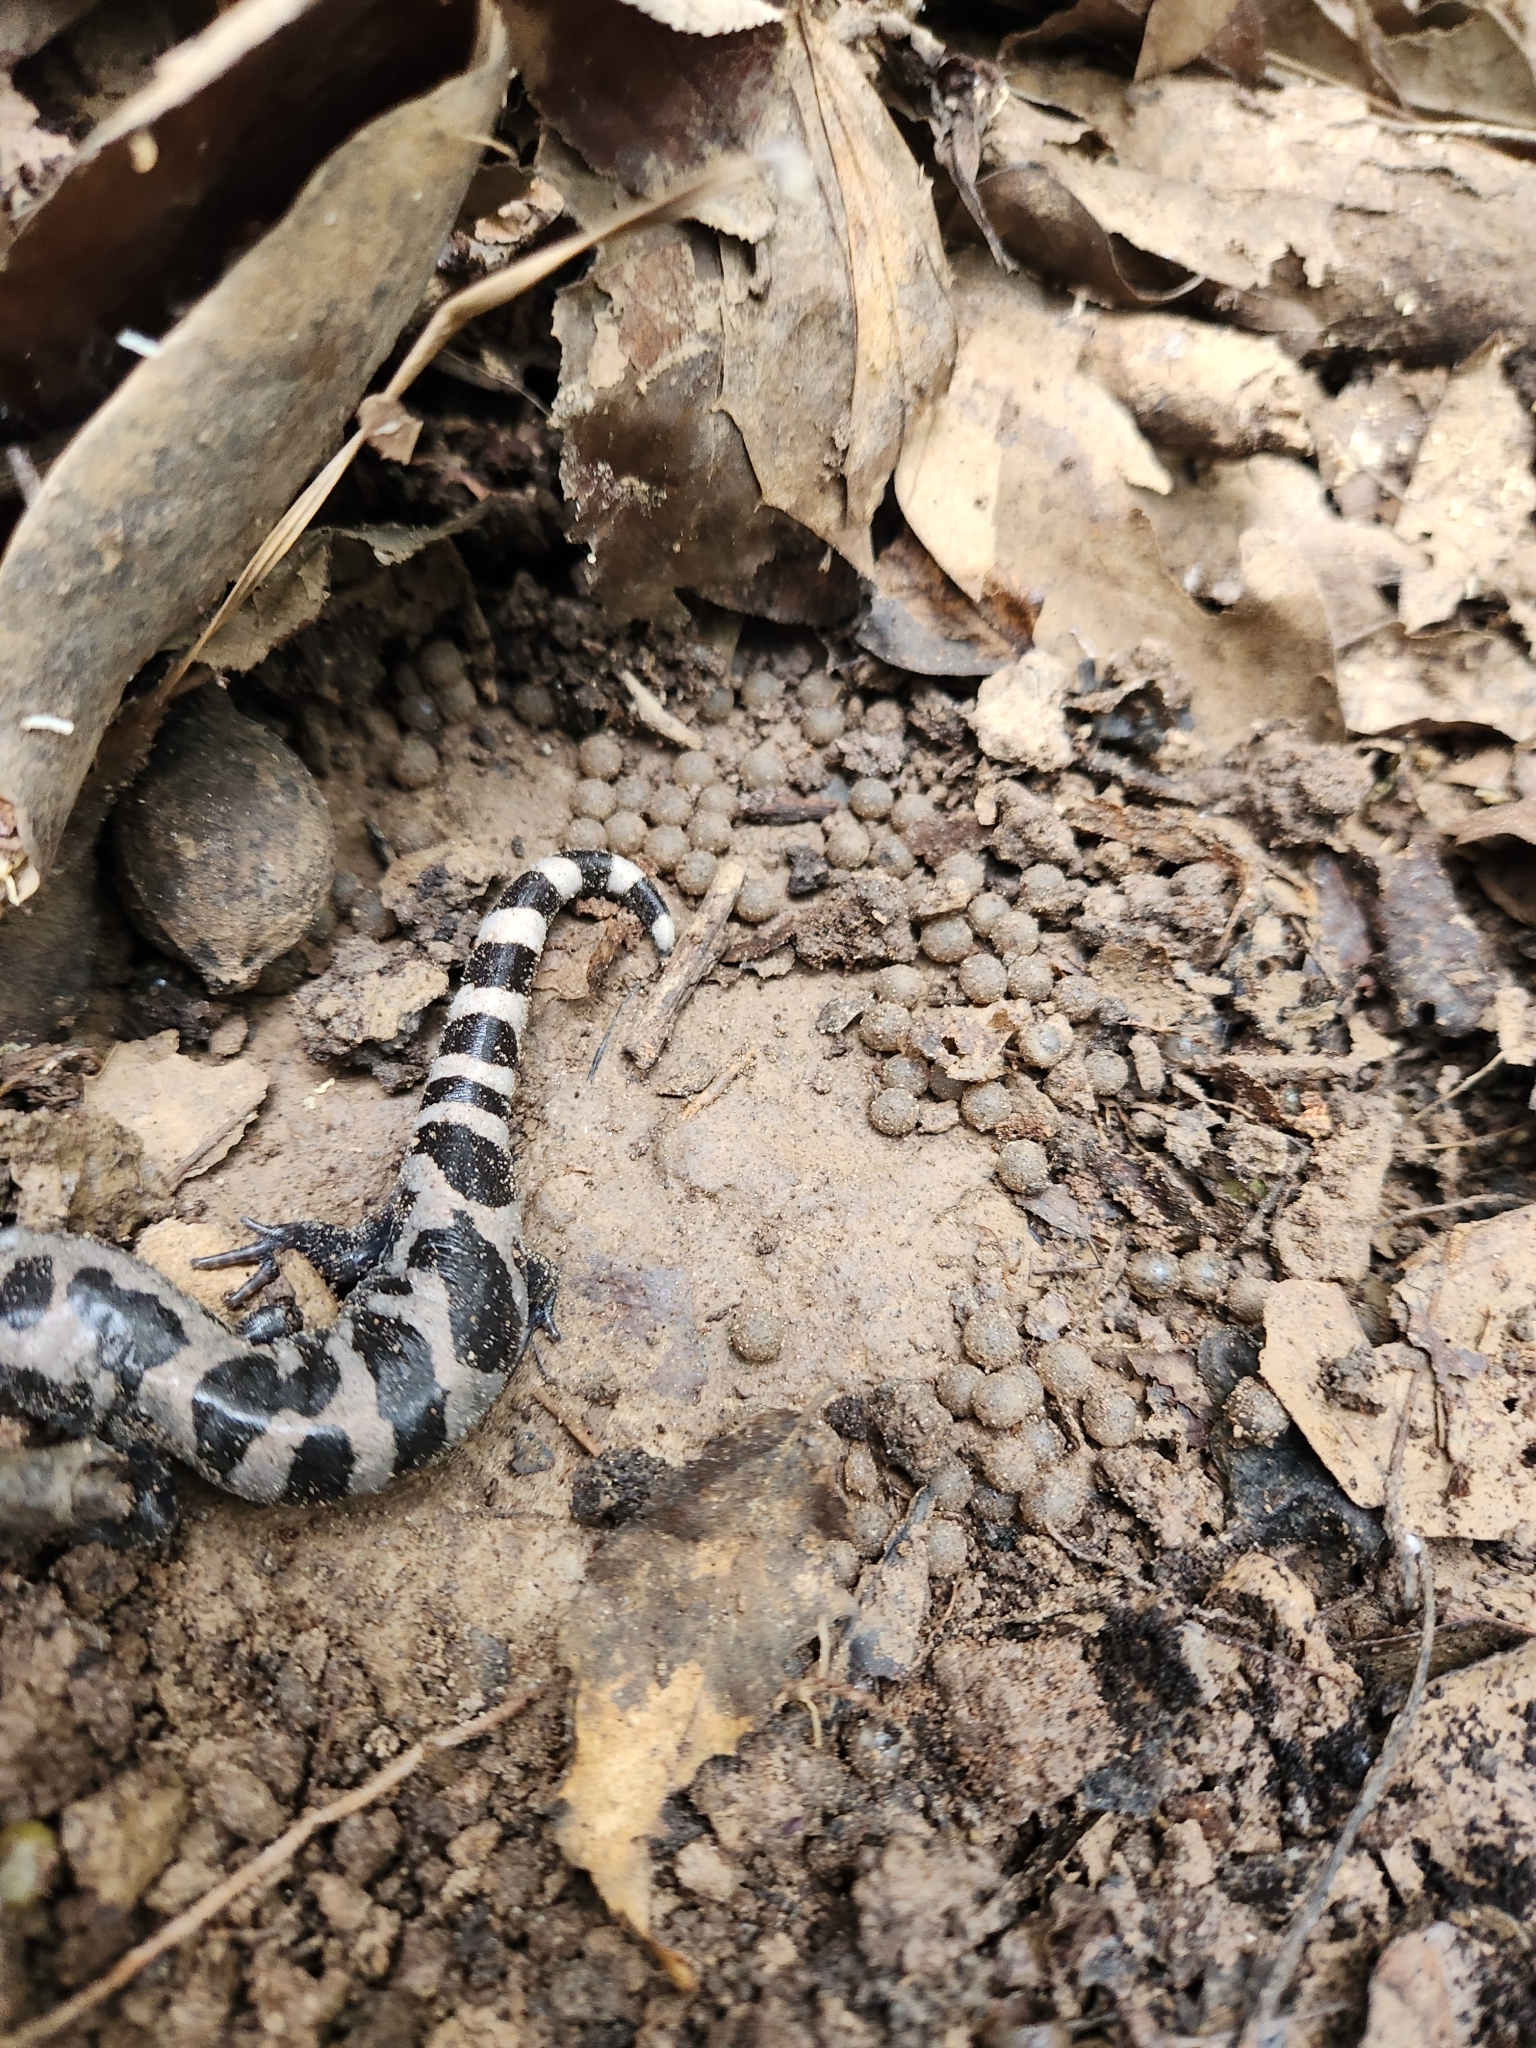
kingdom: Animalia
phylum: Chordata
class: Amphibia
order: Caudata
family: Ambystomatidae
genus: Ambystoma
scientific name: Ambystoma opacum
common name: Marbled salamander
